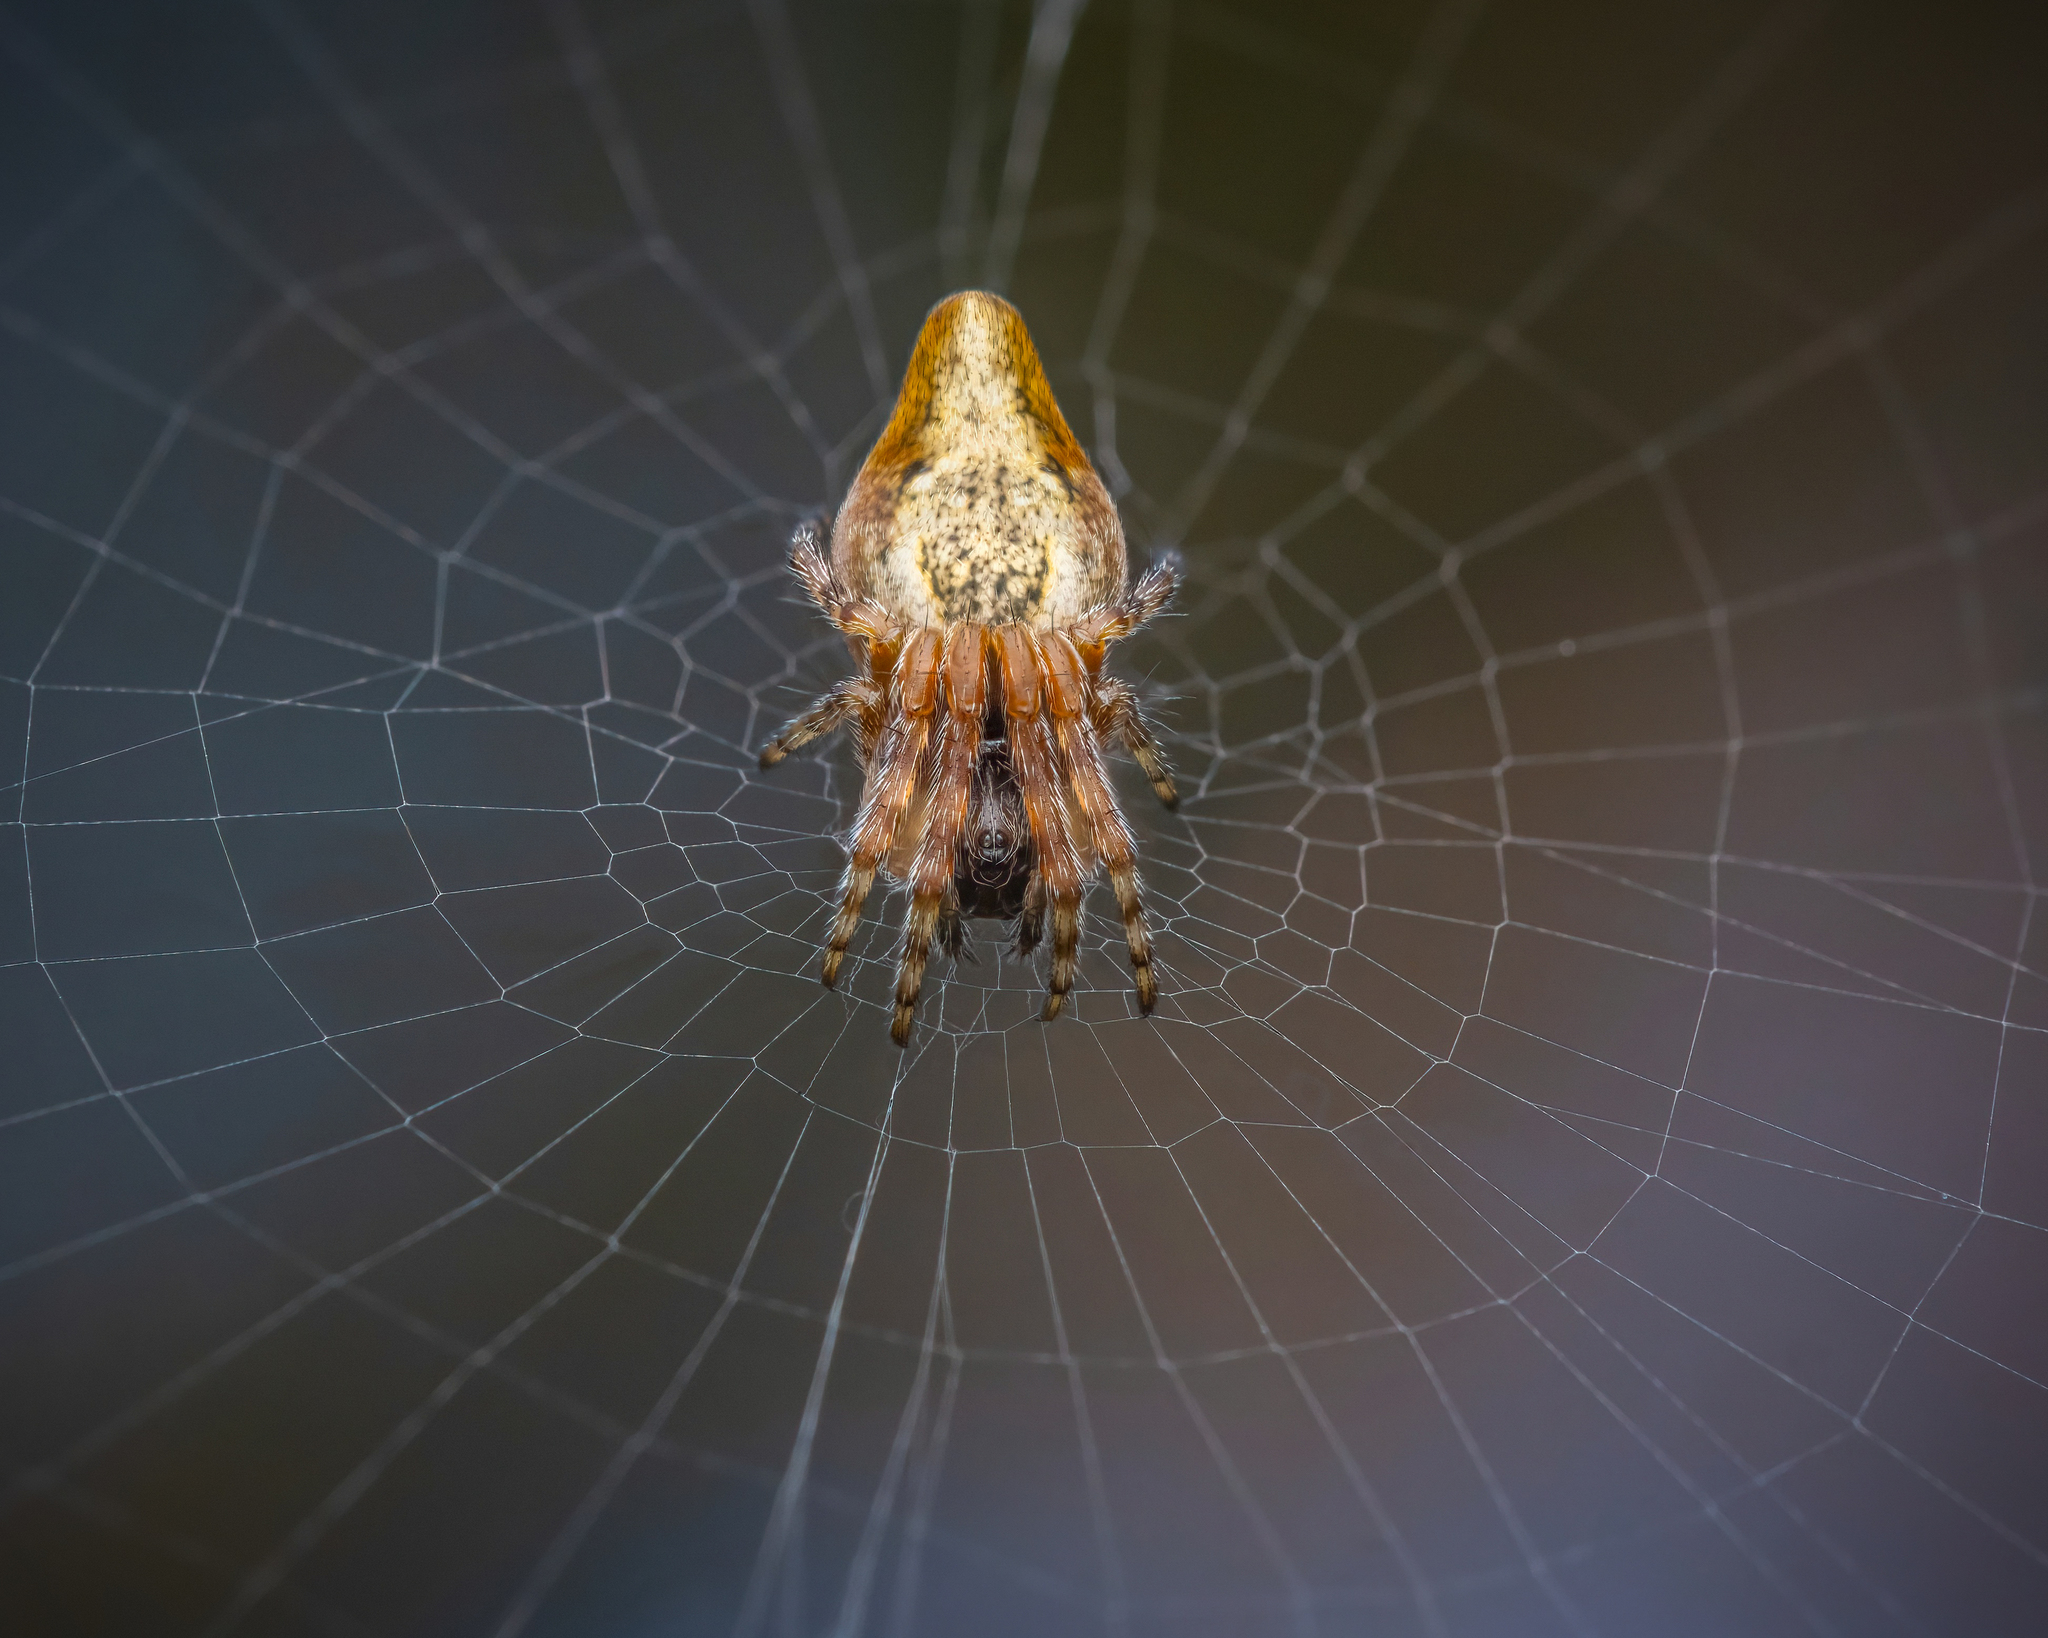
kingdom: Animalia
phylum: Arthropoda
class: Arachnida
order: Araneae
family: Araneidae
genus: Cyclosa
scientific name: Cyclosa conica
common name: Conical trashline orbweaver
